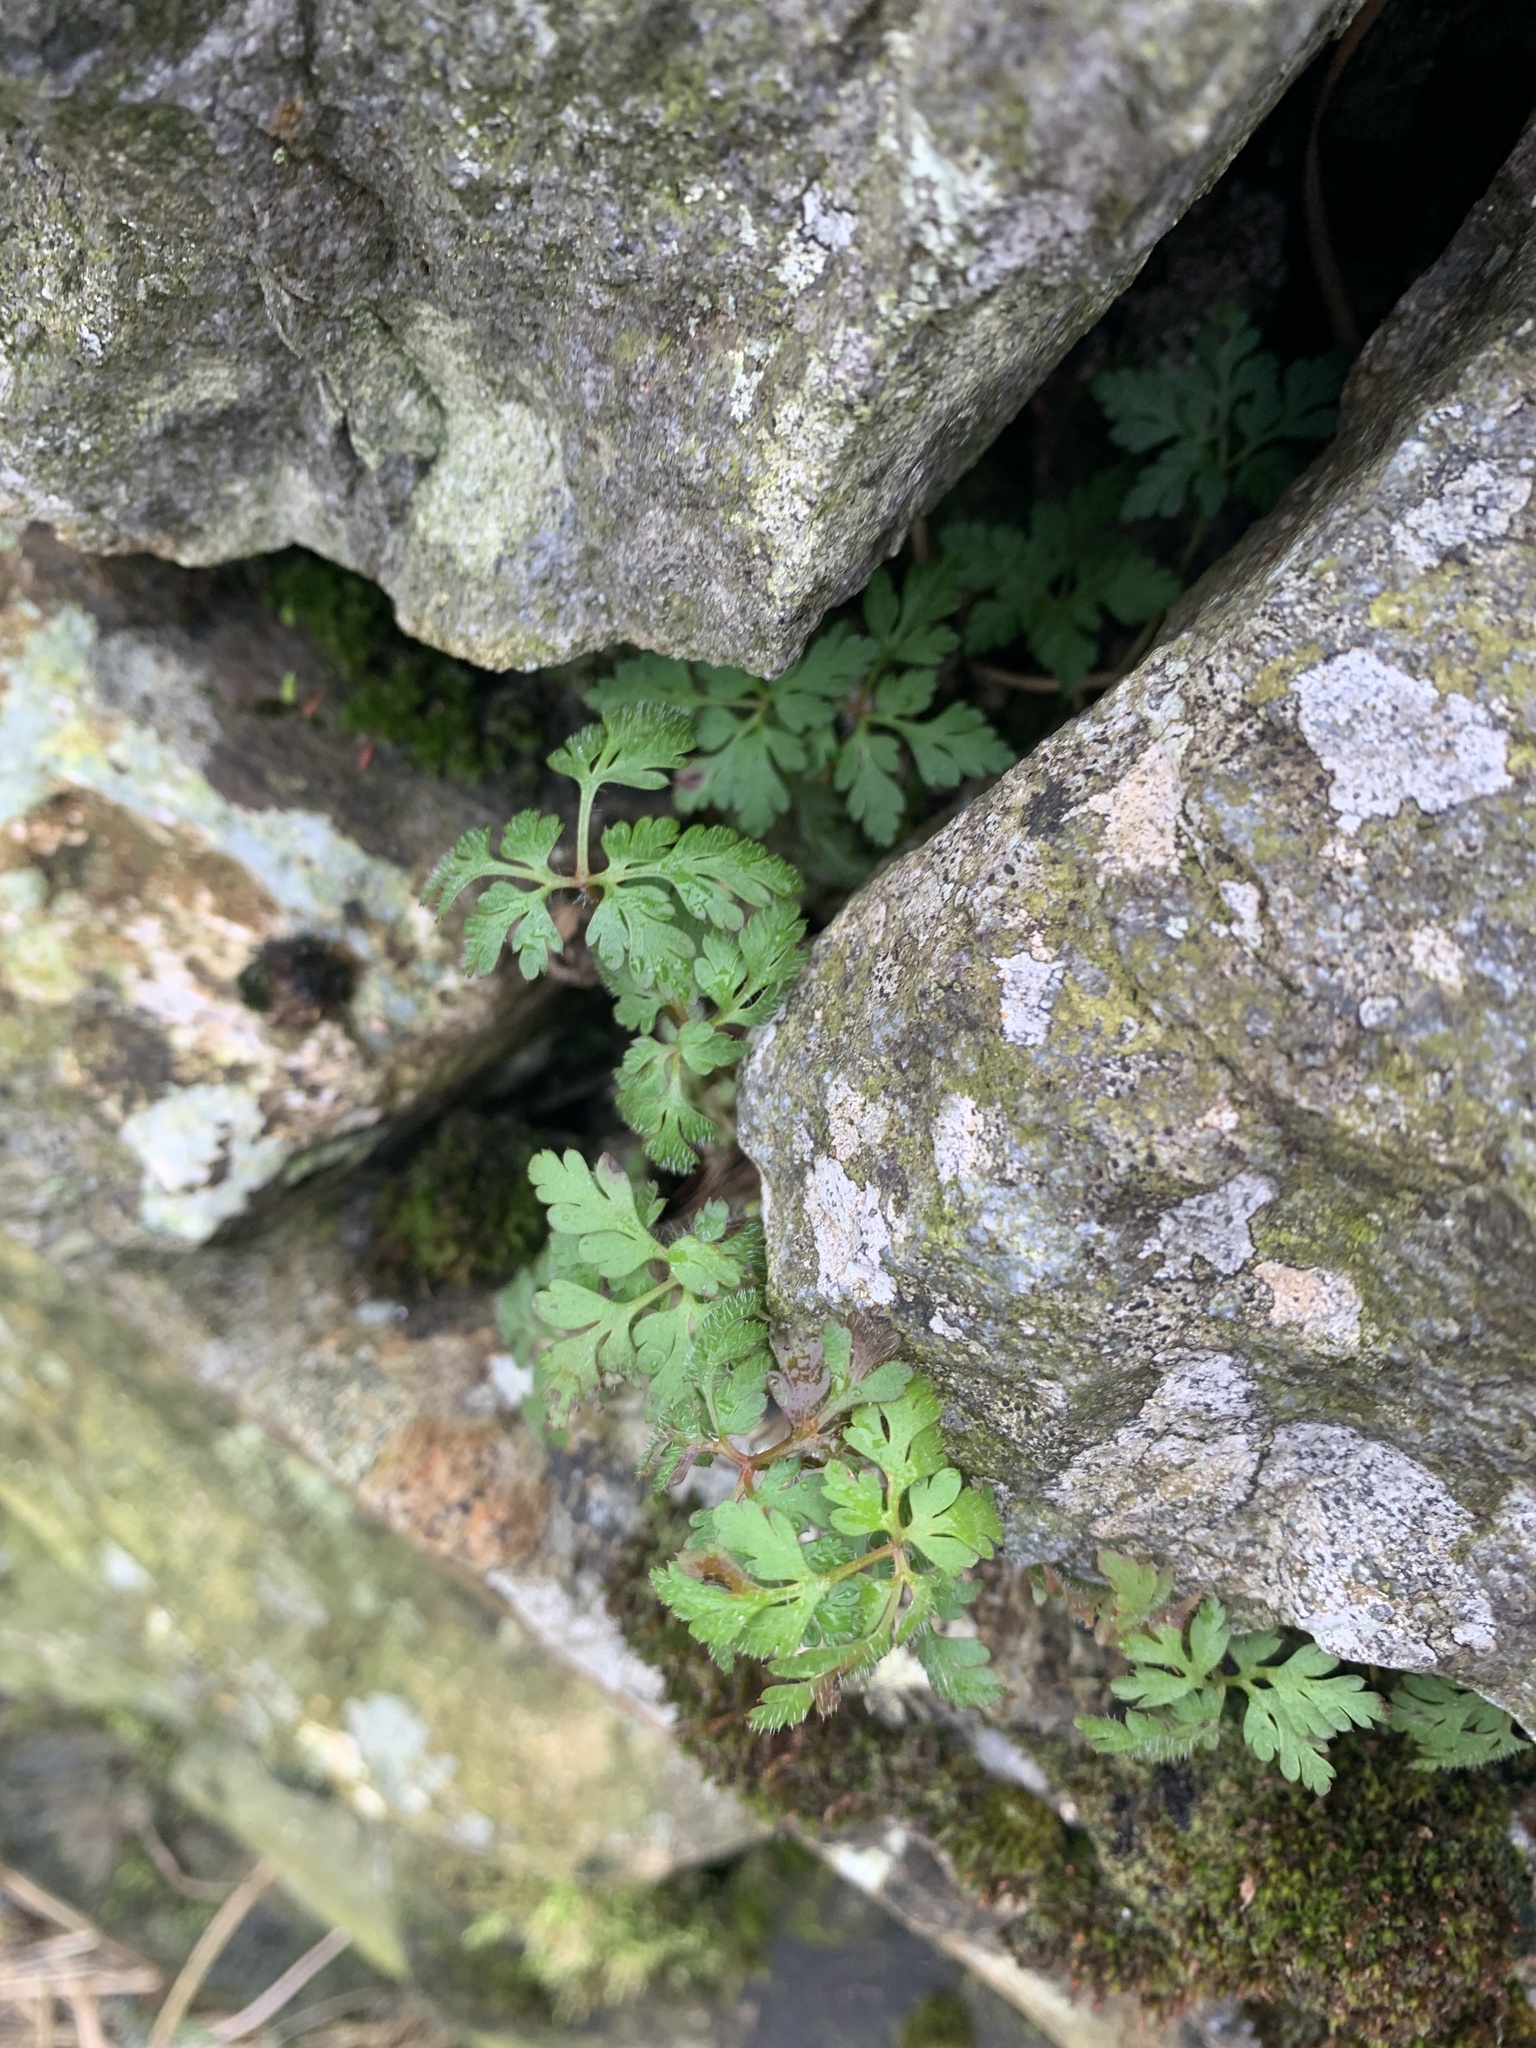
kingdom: Plantae
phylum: Tracheophyta
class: Magnoliopsida
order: Geraniales
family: Geraniaceae
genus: Geranium
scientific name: Geranium robertianum
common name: Herb-robert
